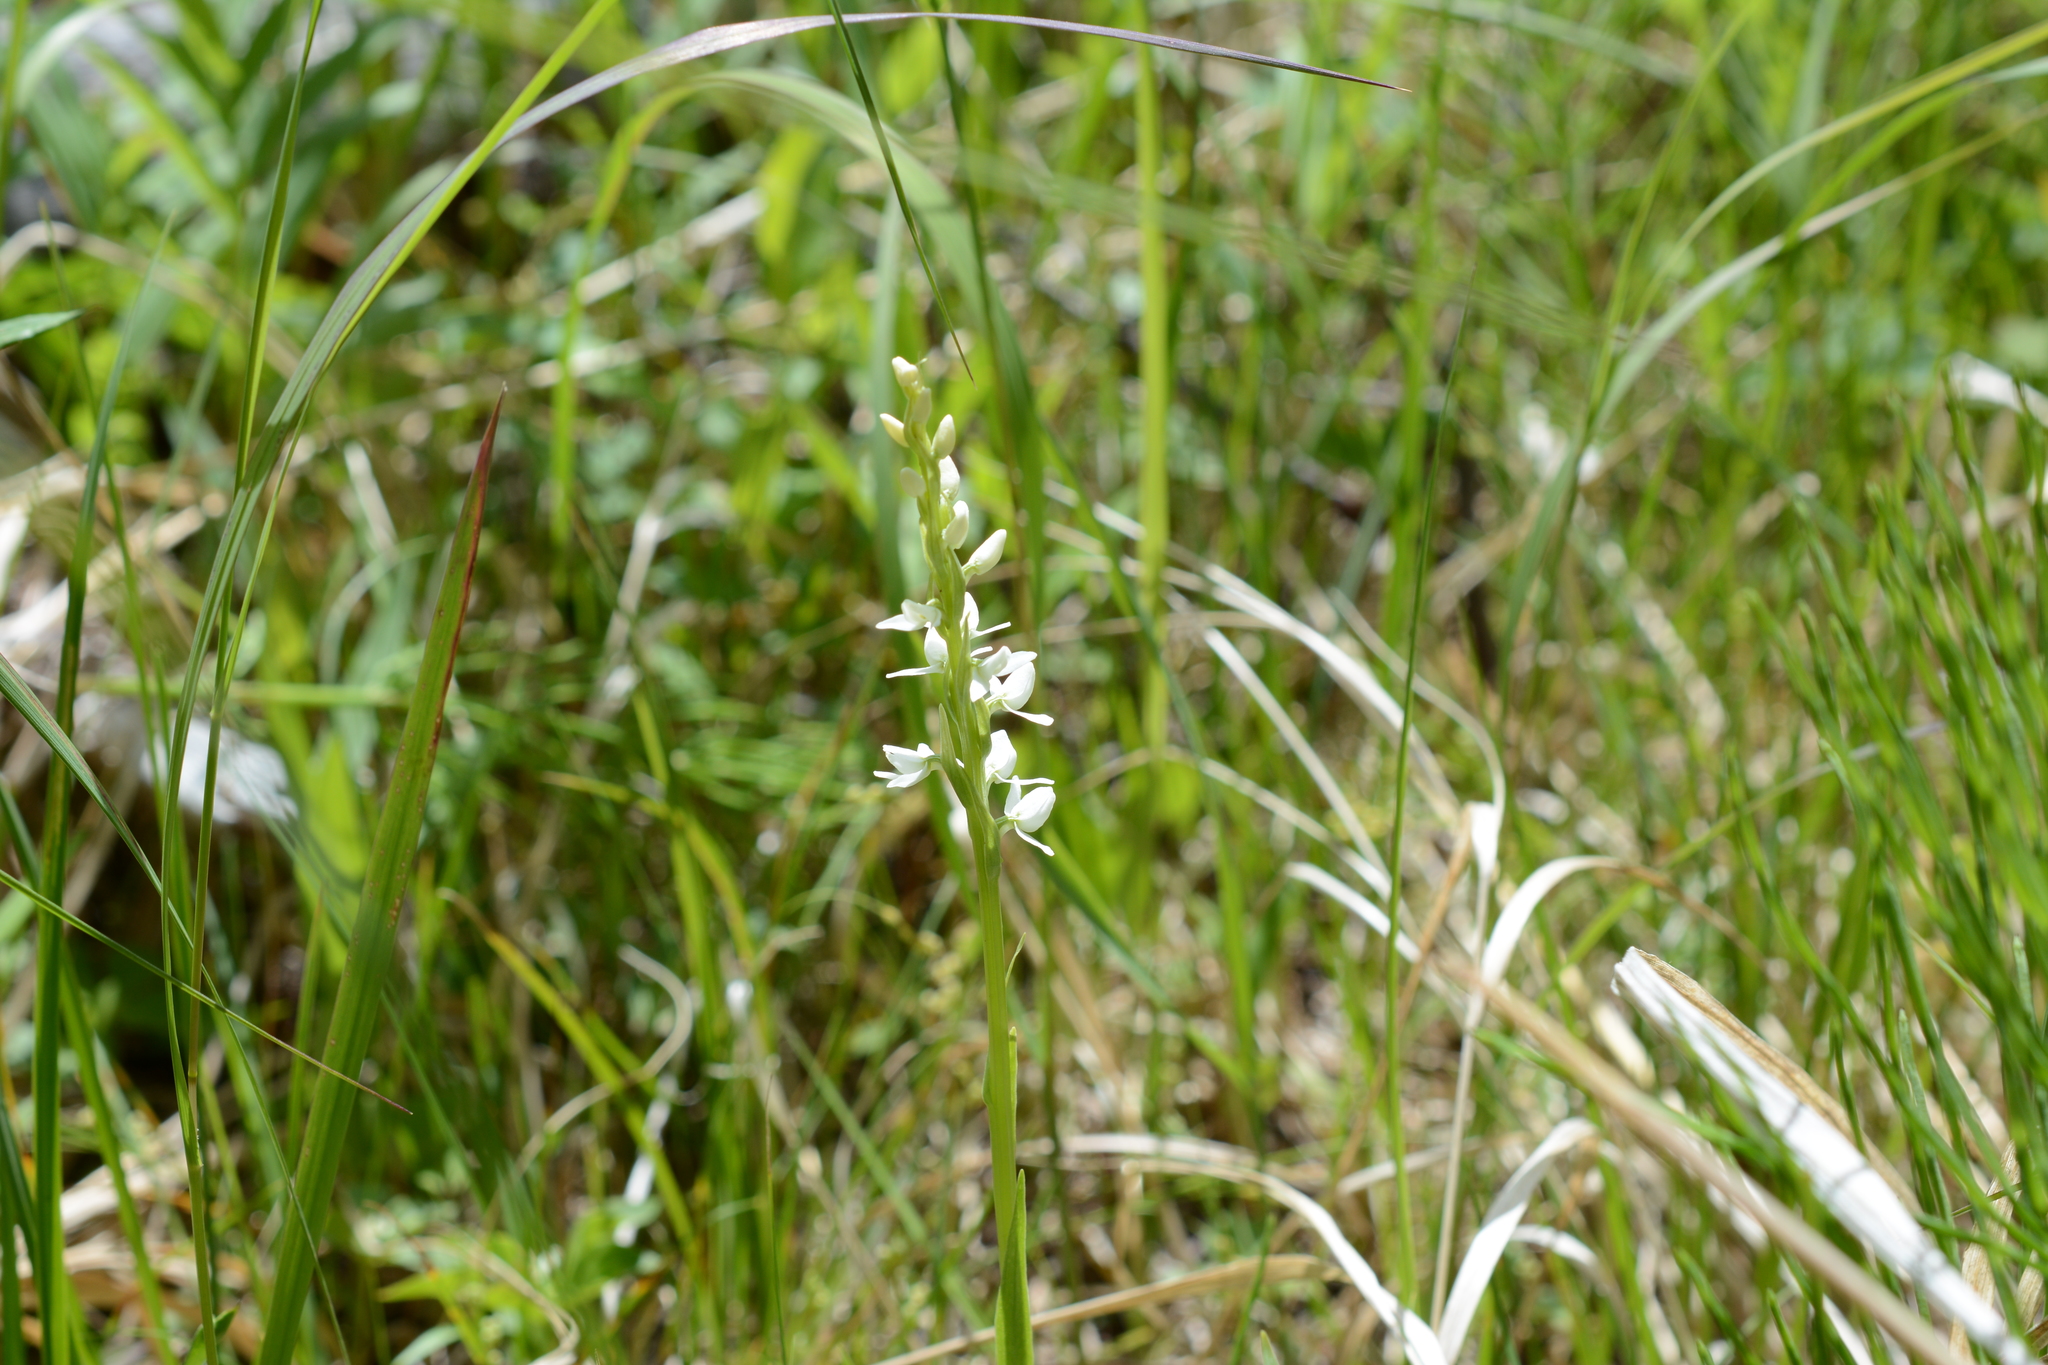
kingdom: Plantae
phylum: Tracheophyta
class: Liliopsida
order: Asparagales
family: Orchidaceae
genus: Platanthera
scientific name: Platanthera dilatata
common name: Bog candles
